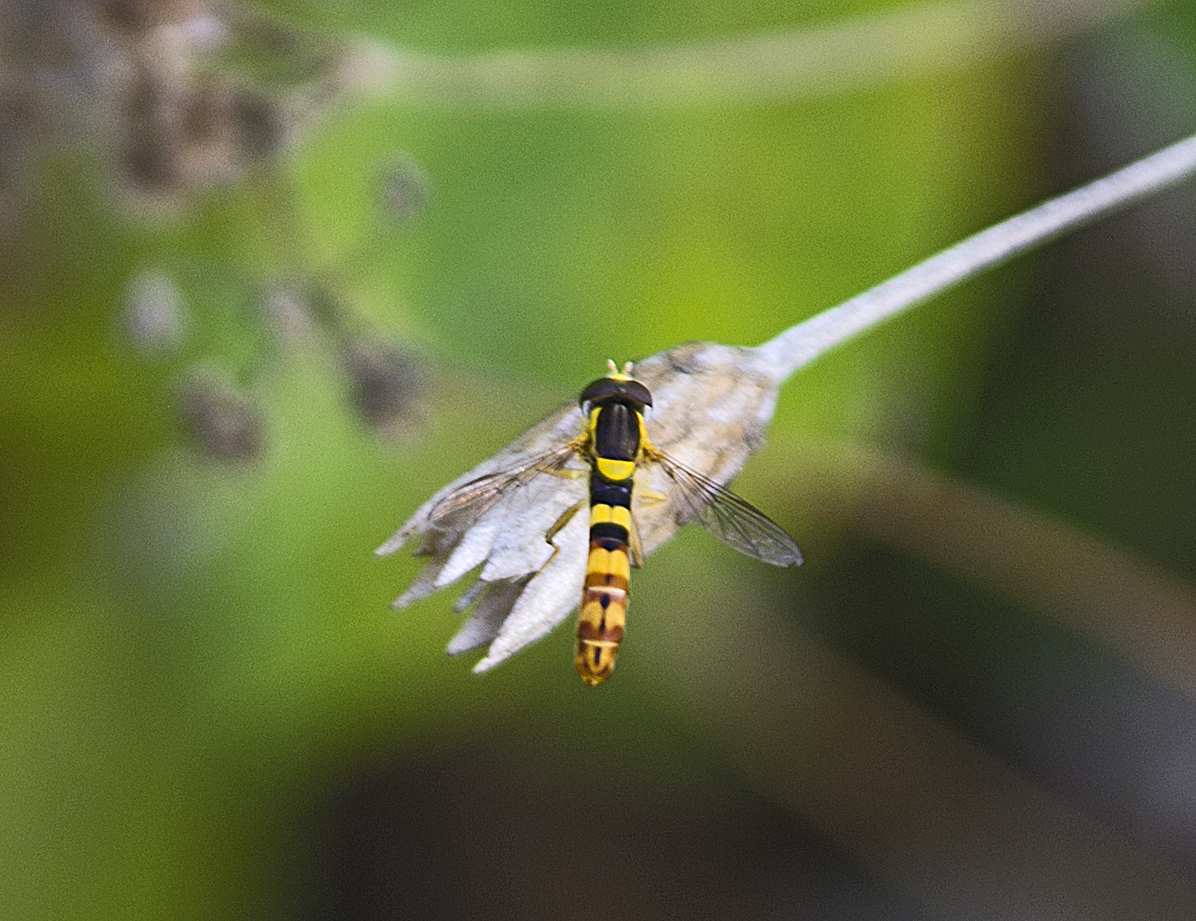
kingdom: Animalia
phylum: Arthropoda
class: Insecta
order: Diptera
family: Syrphidae
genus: Sphaerophoria
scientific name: Sphaerophoria scripta
